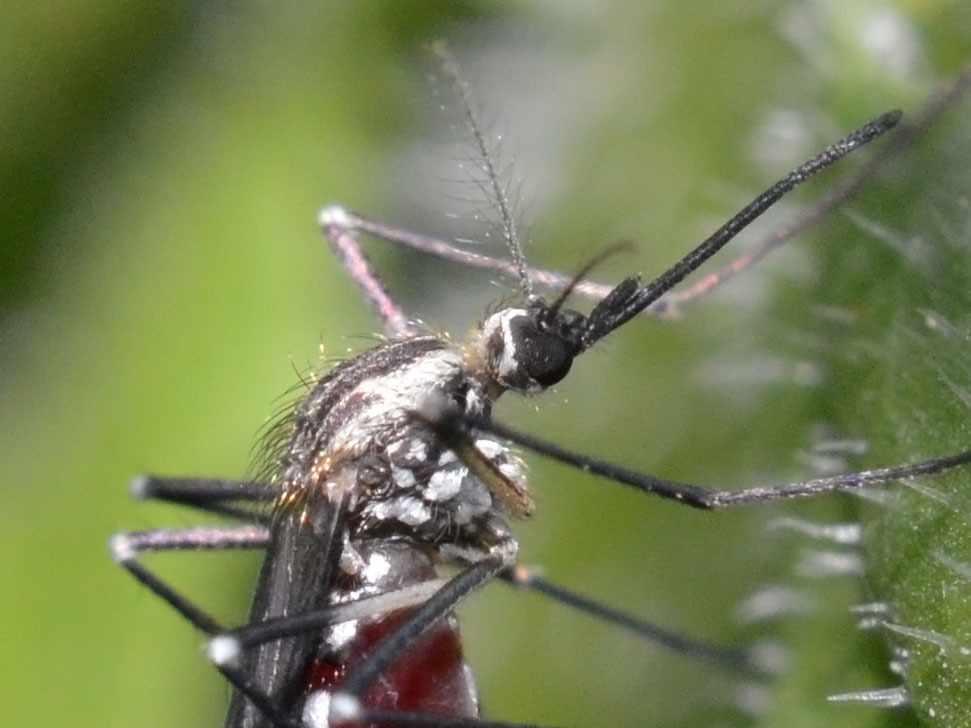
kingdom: Animalia
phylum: Arthropoda
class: Insecta
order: Diptera
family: Culicidae
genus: Aedes
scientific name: Aedes geniculatus
